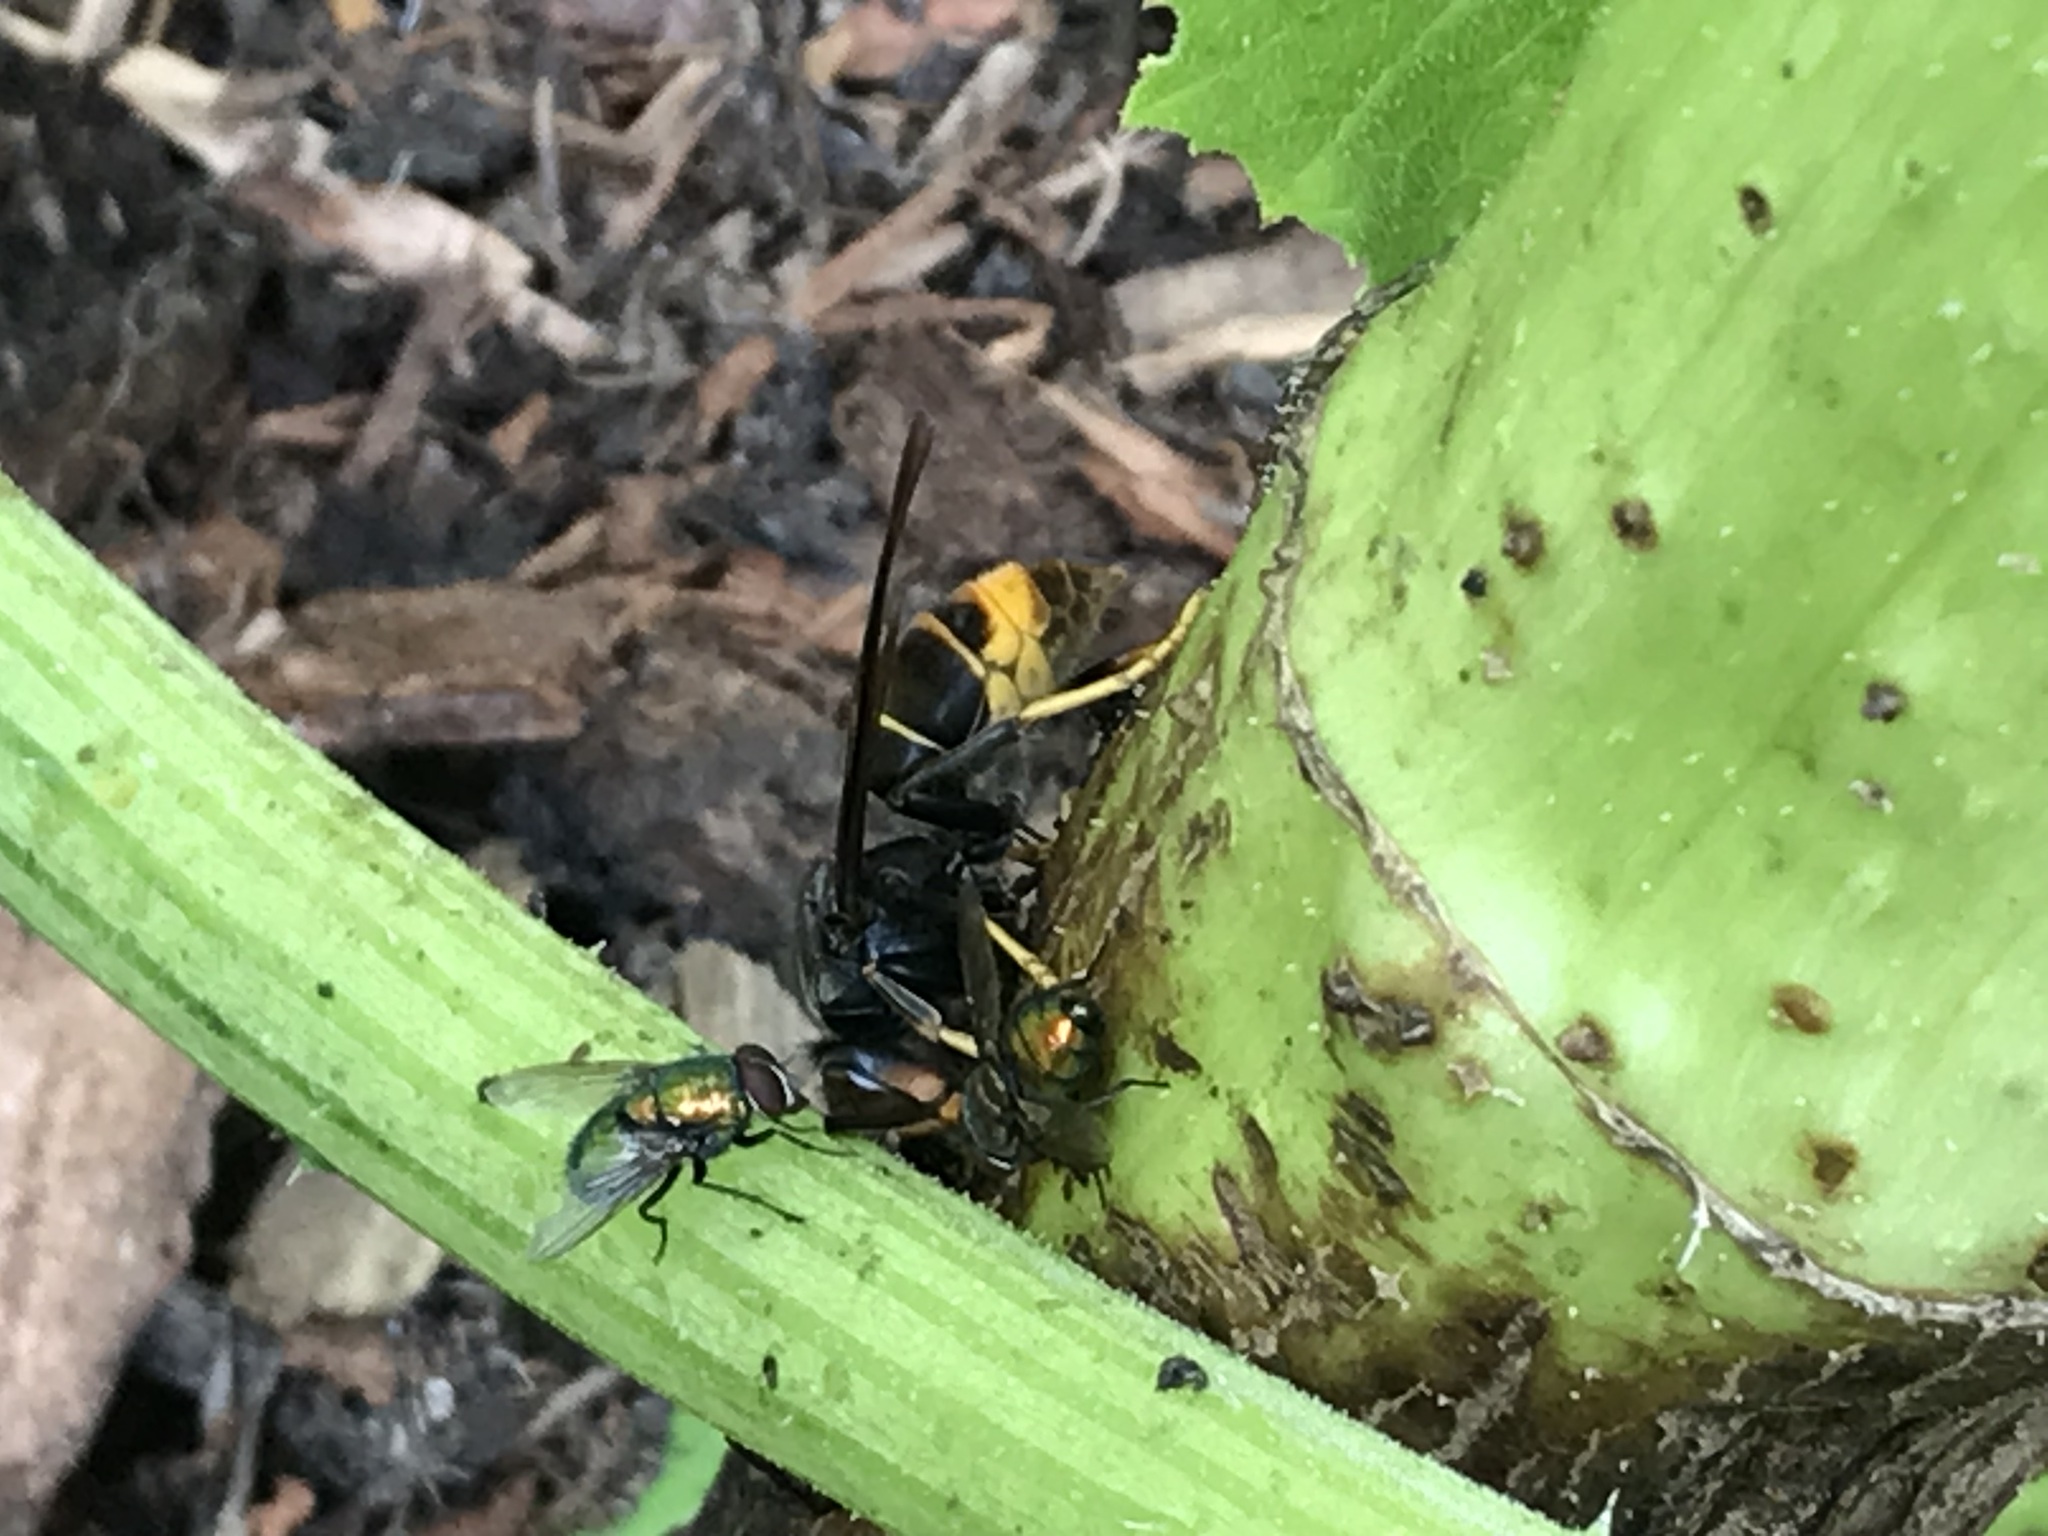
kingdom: Animalia
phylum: Arthropoda
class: Insecta
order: Hymenoptera
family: Vespidae
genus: Vespa
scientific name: Vespa velutina
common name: Asian hornet
